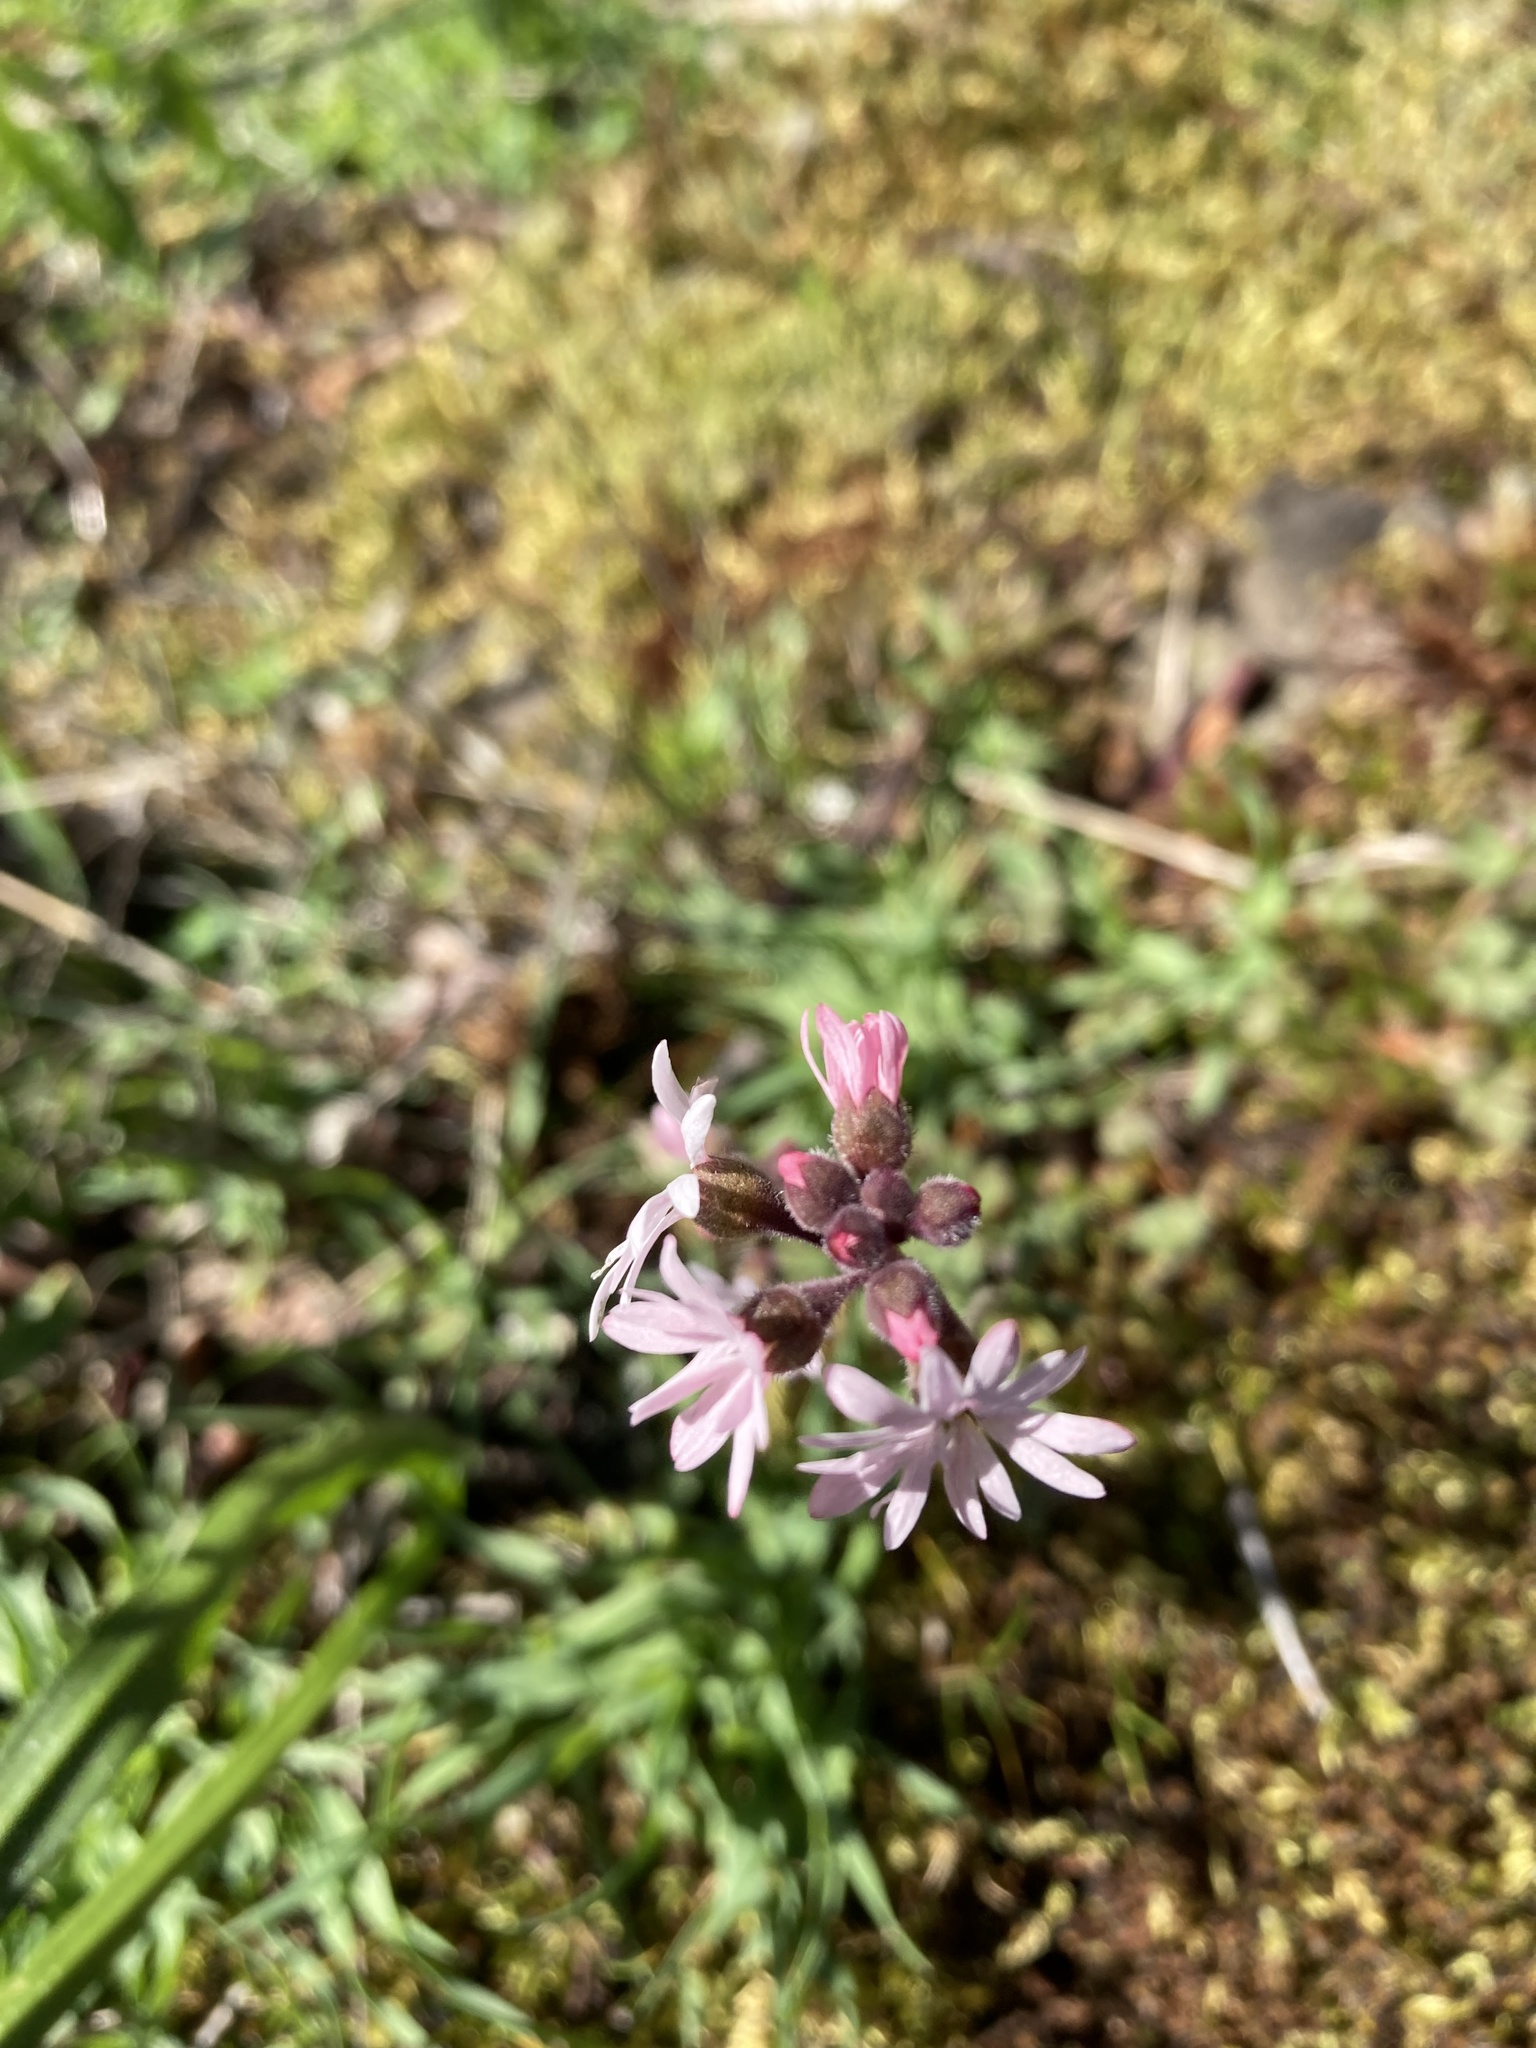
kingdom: Plantae
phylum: Tracheophyta
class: Magnoliopsida
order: Saxifragales
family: Saxifragaceae
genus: Lithophragma
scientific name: Lithophragma parviflorum
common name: Small-flowered fringe-cup
